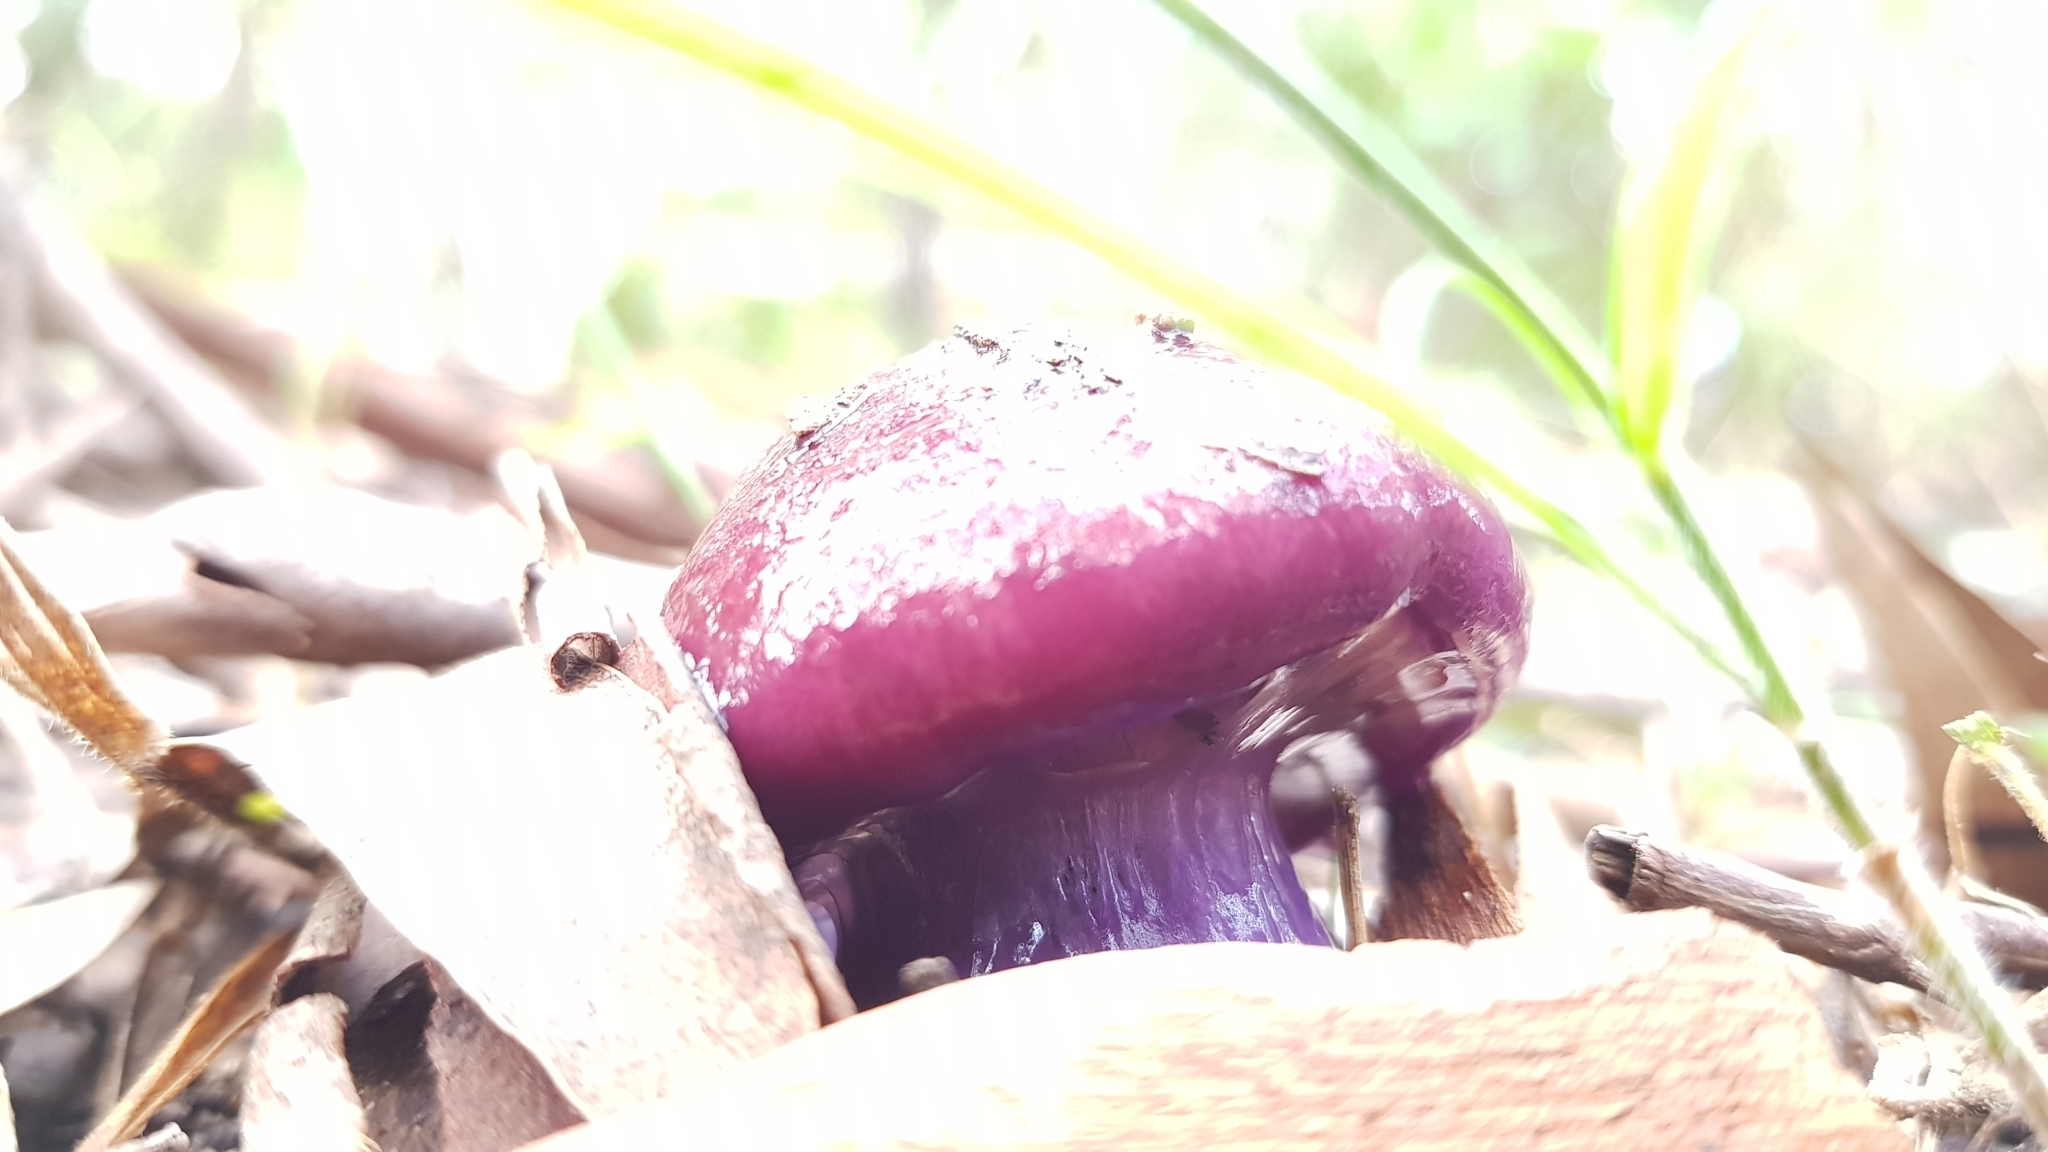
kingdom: Fungi
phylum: Basidiomycota
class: Agaricomycetes
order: Agaricales
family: Cortinariaceae
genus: Cortinarius
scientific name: Cortinarius archeri
